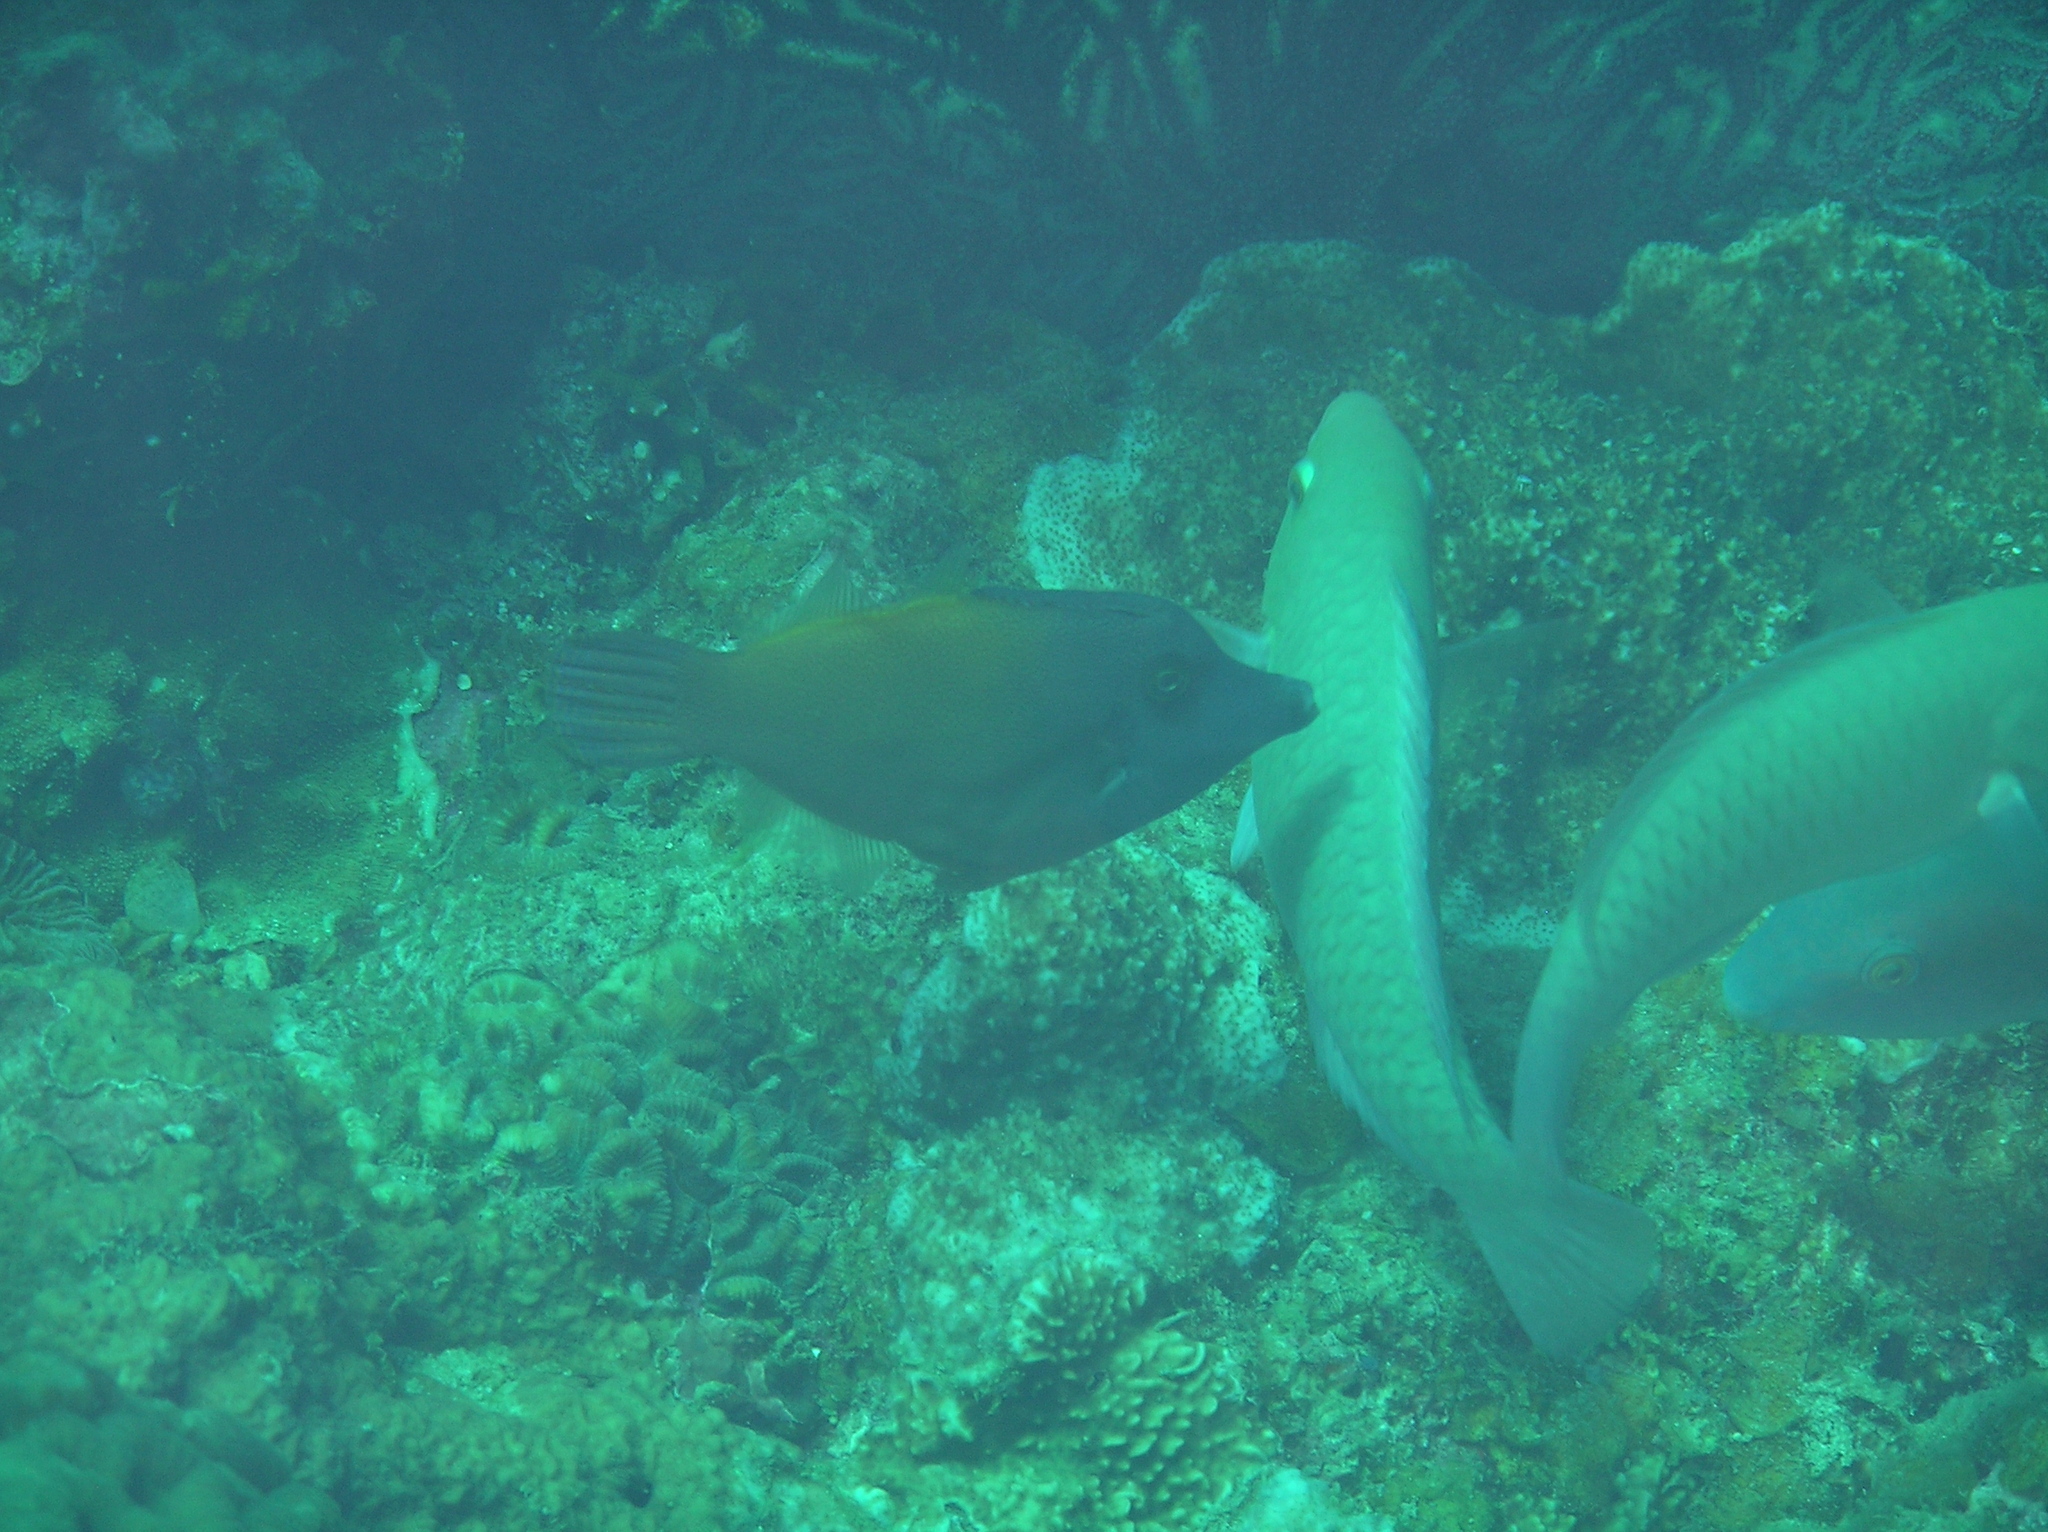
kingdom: Animalia
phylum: Chordata
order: Tetraodontiformes
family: Monacanthidae
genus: Pervagor
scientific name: Pervagor melanocephalus
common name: Black-headed leatherjacket
